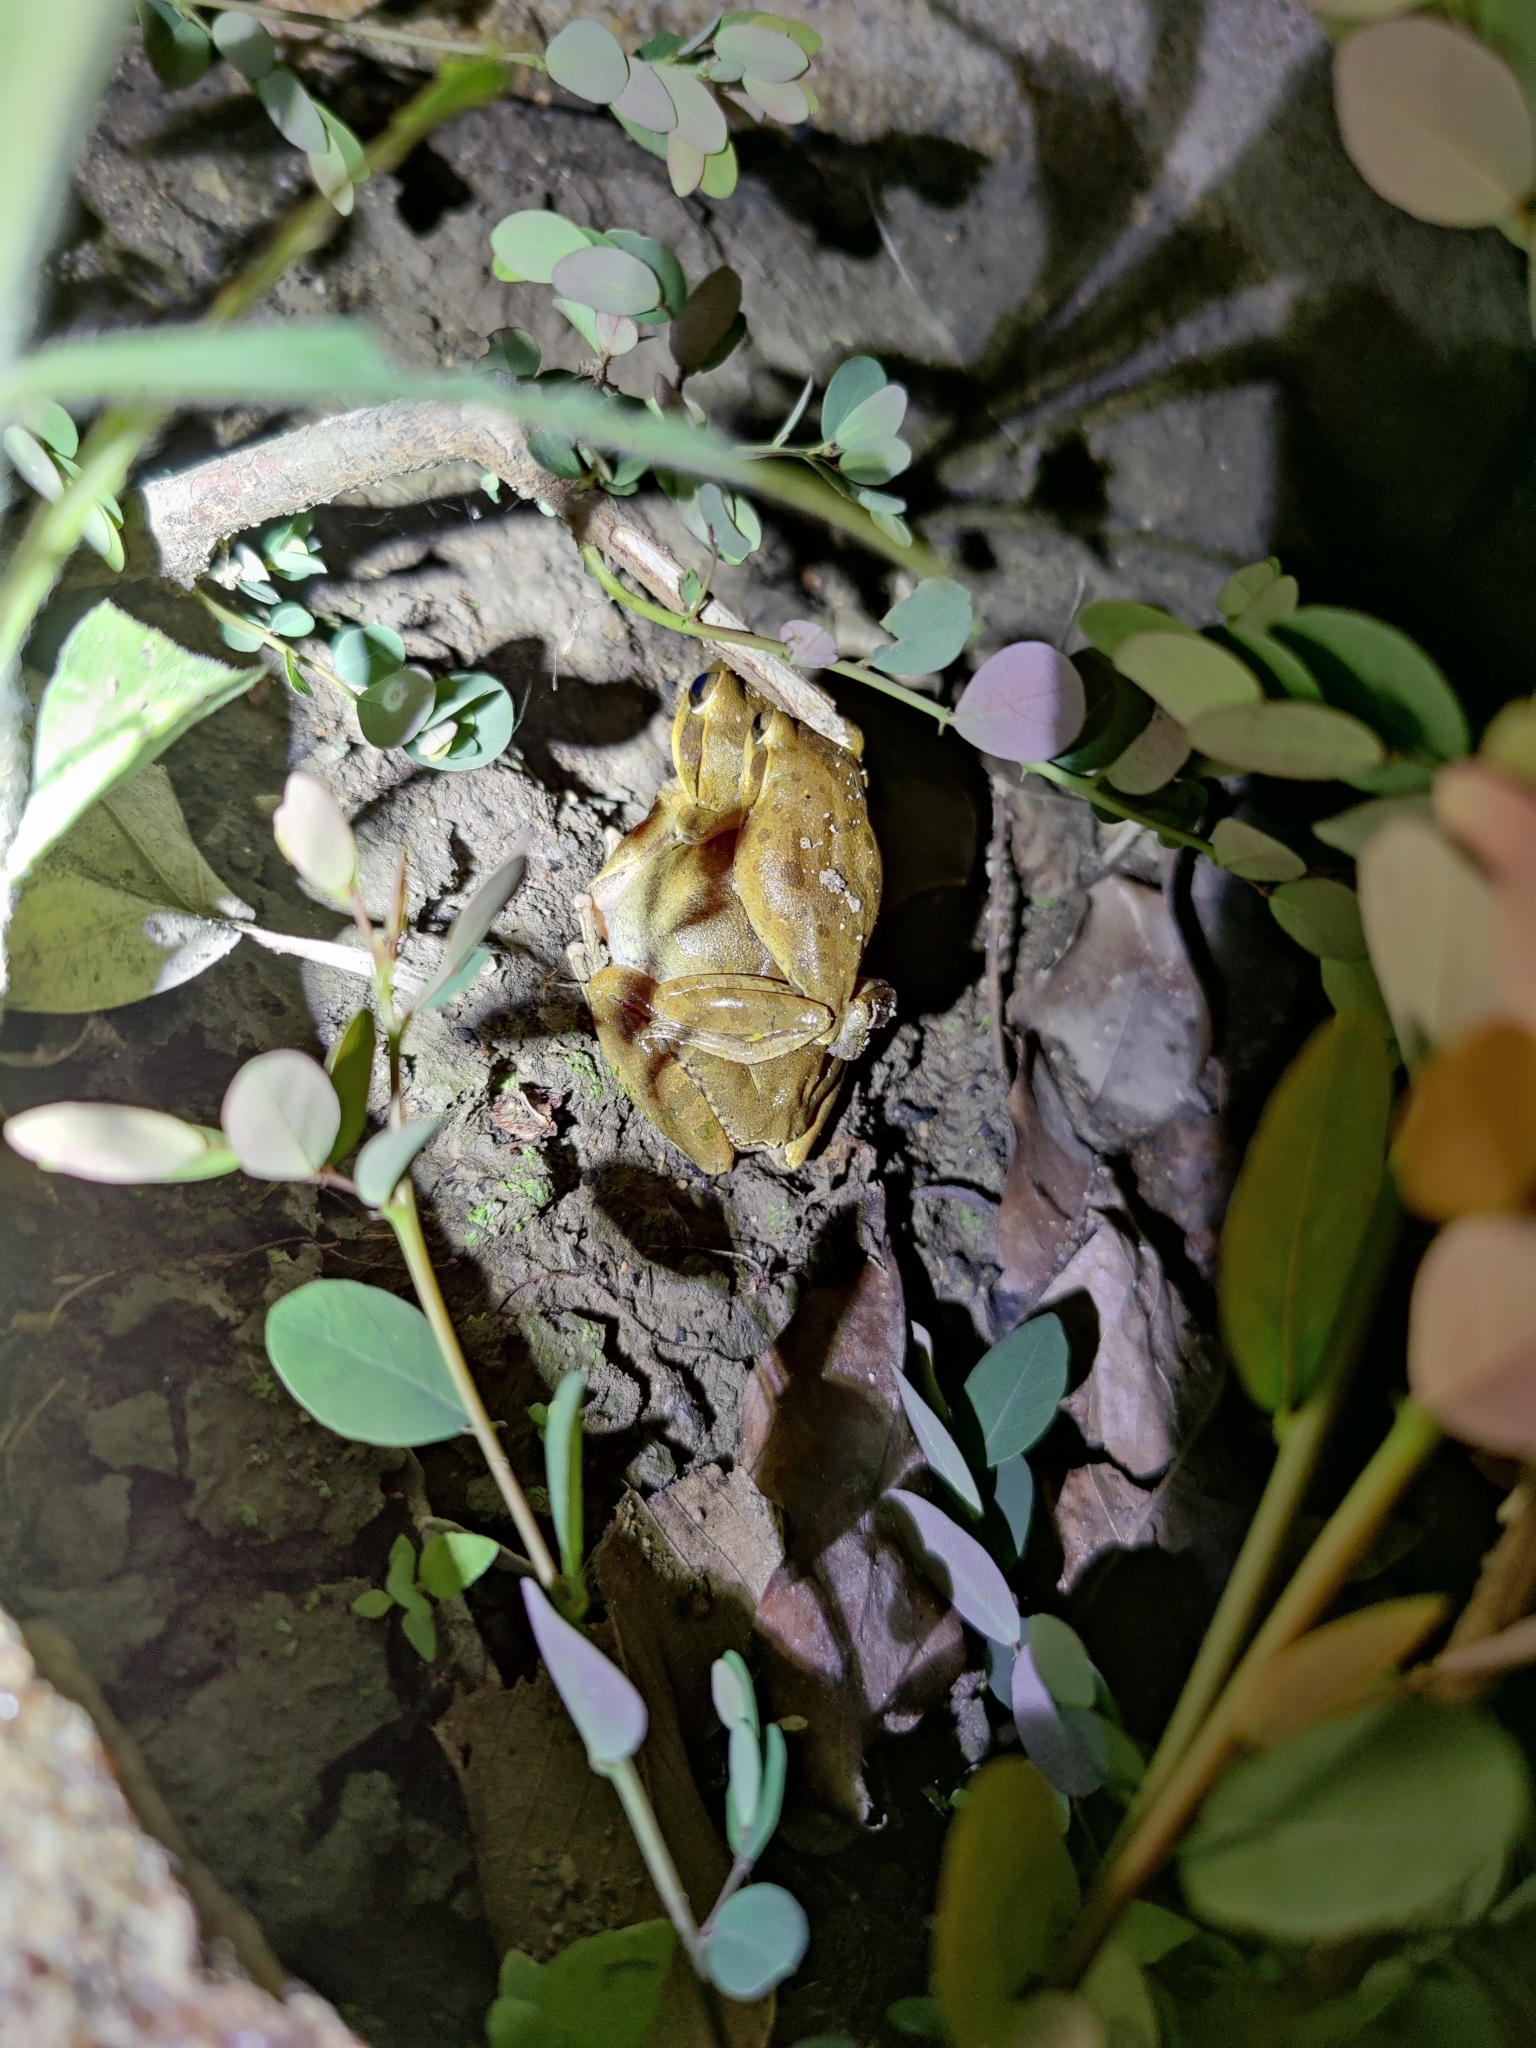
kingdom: Animalia
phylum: Chordata
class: Amphibia
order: Anura
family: Rhacophoridae
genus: Polypedates
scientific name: Polypedates maculatus
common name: Himalayan tree frog
